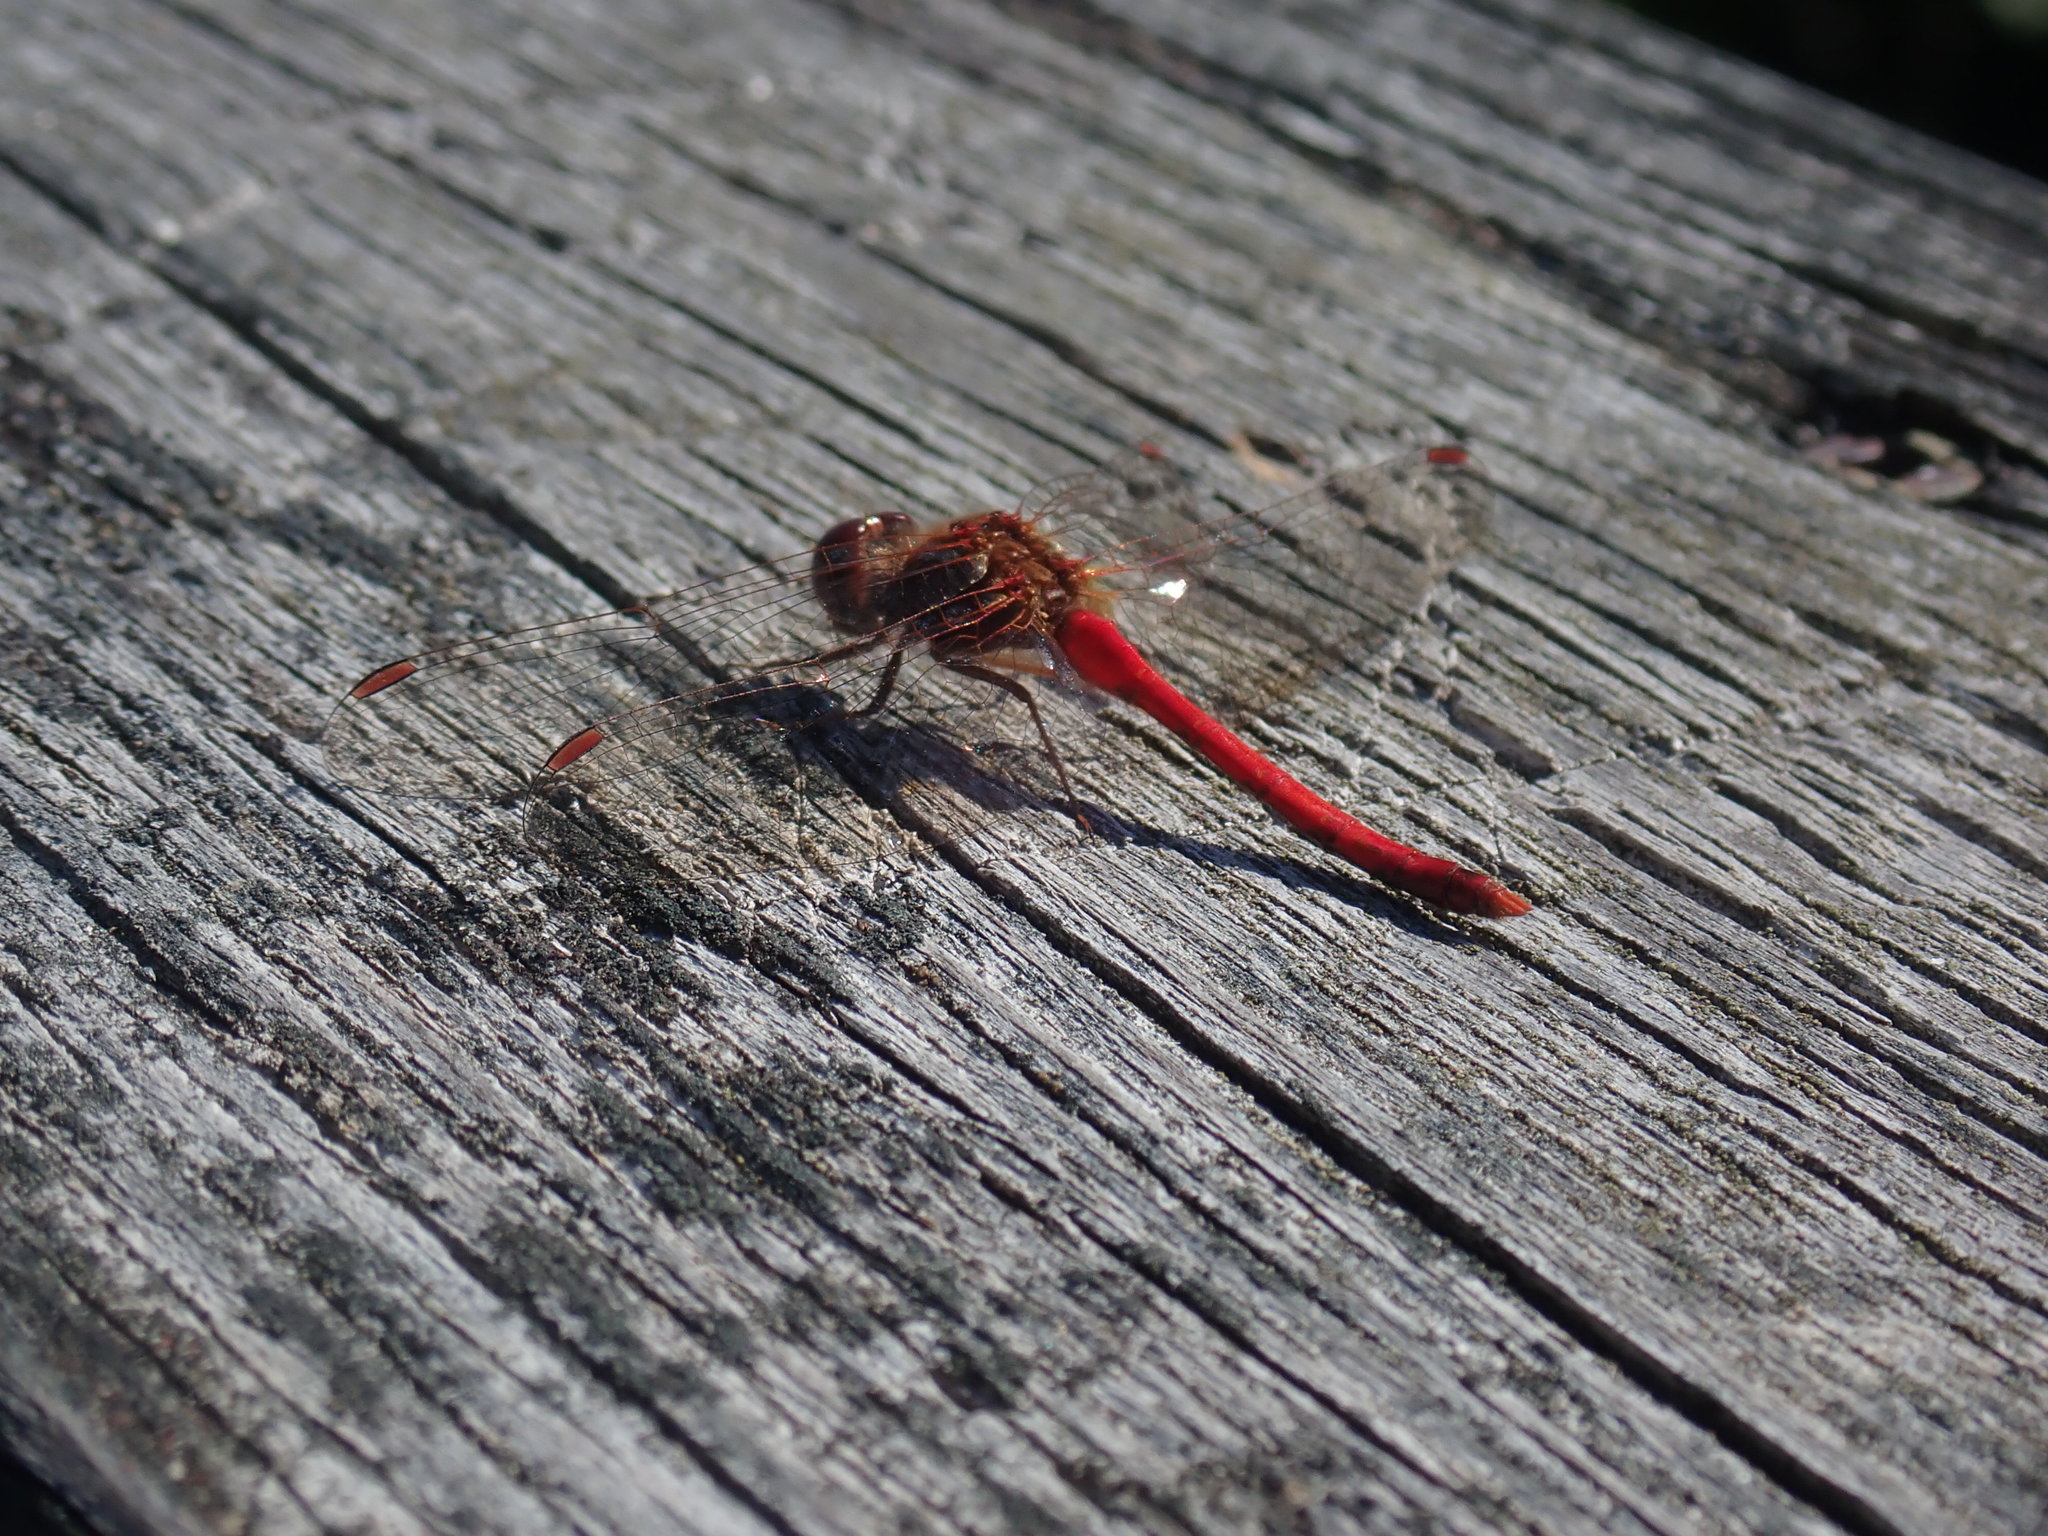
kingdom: Animalia
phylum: Arthropoda
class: Insecta
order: Odonata
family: Libellulidae
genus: Sympetrum
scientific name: Sympetrum vicinum
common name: Autumn meadowhawk
